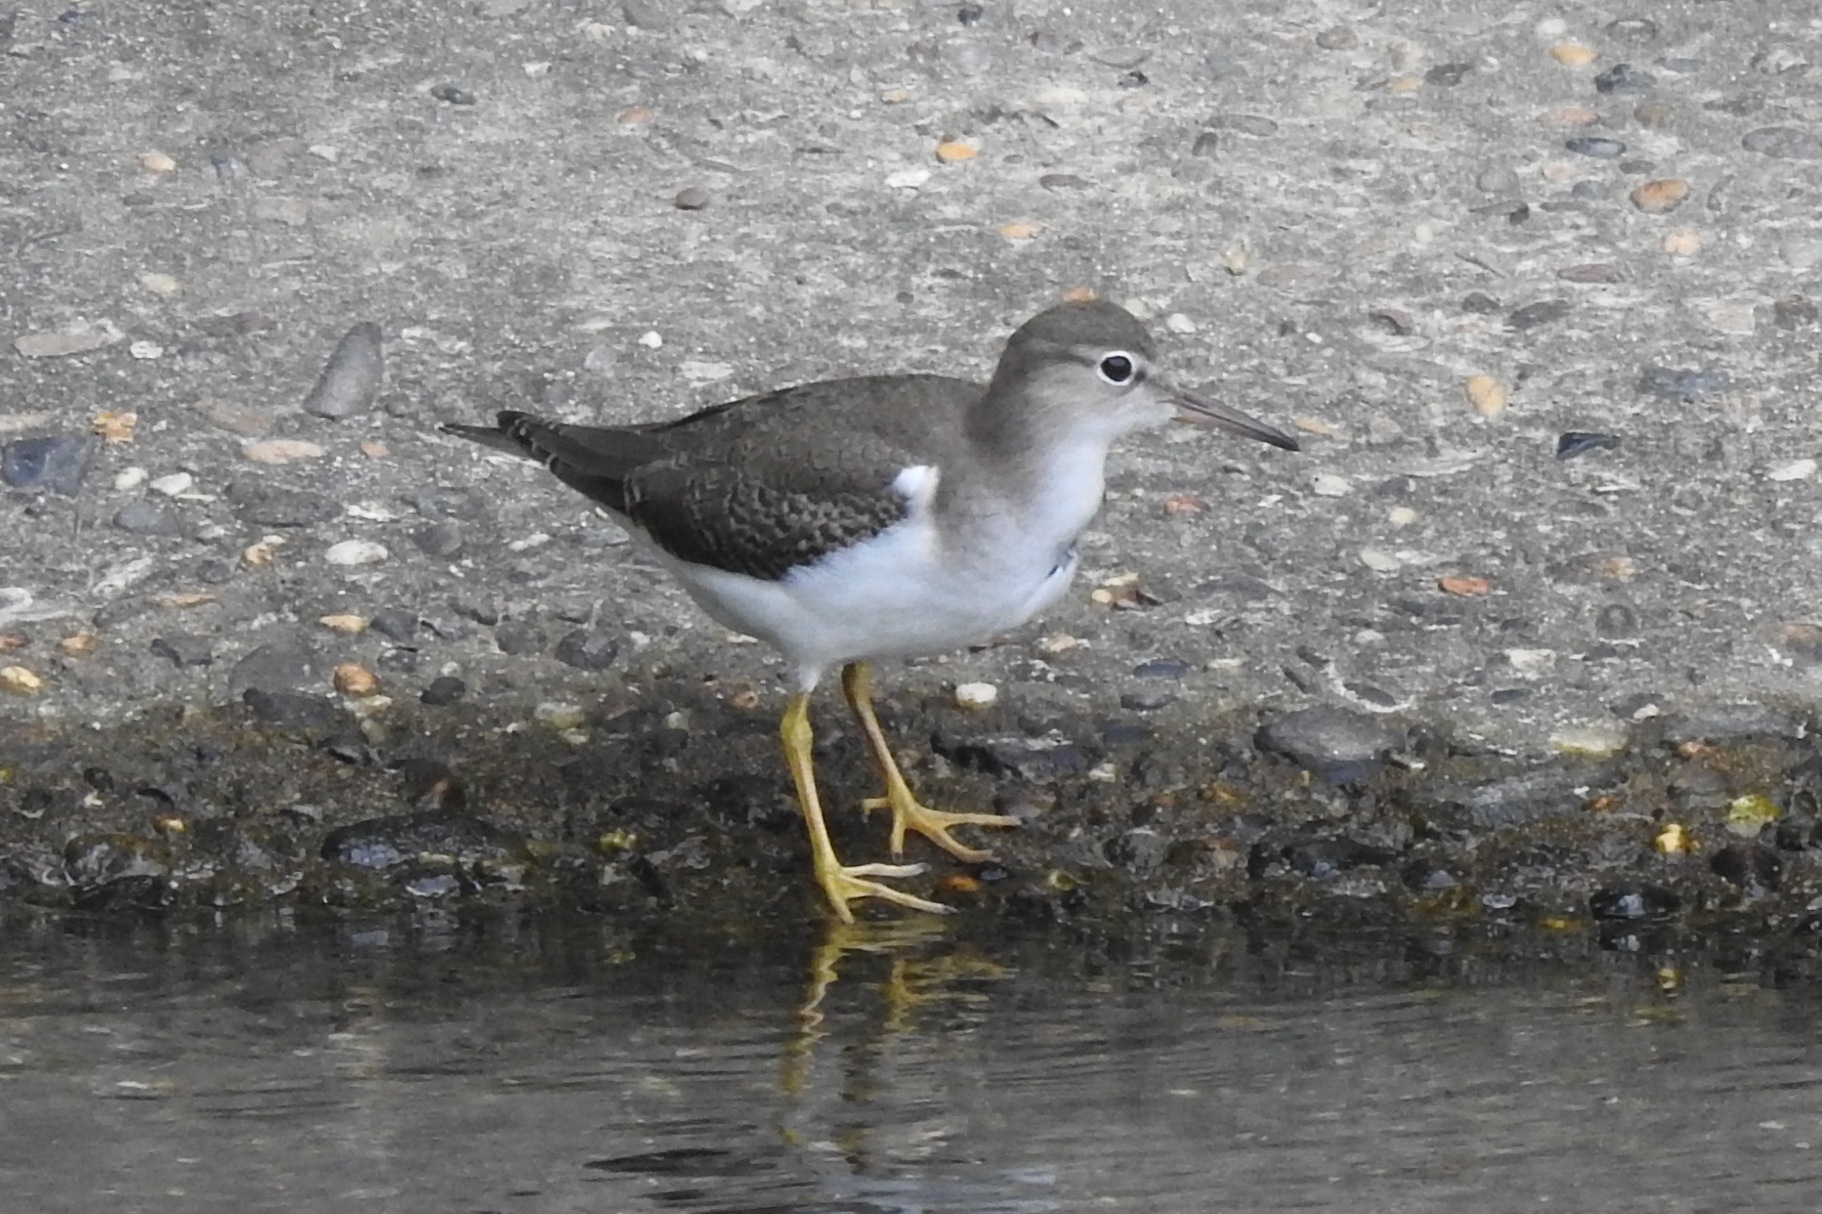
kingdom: Animalia
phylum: Chordata
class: Aves
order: Charadriiformes
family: Scolopacidae
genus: Actitis
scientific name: Actitis macularius
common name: Spotted sandpiper
